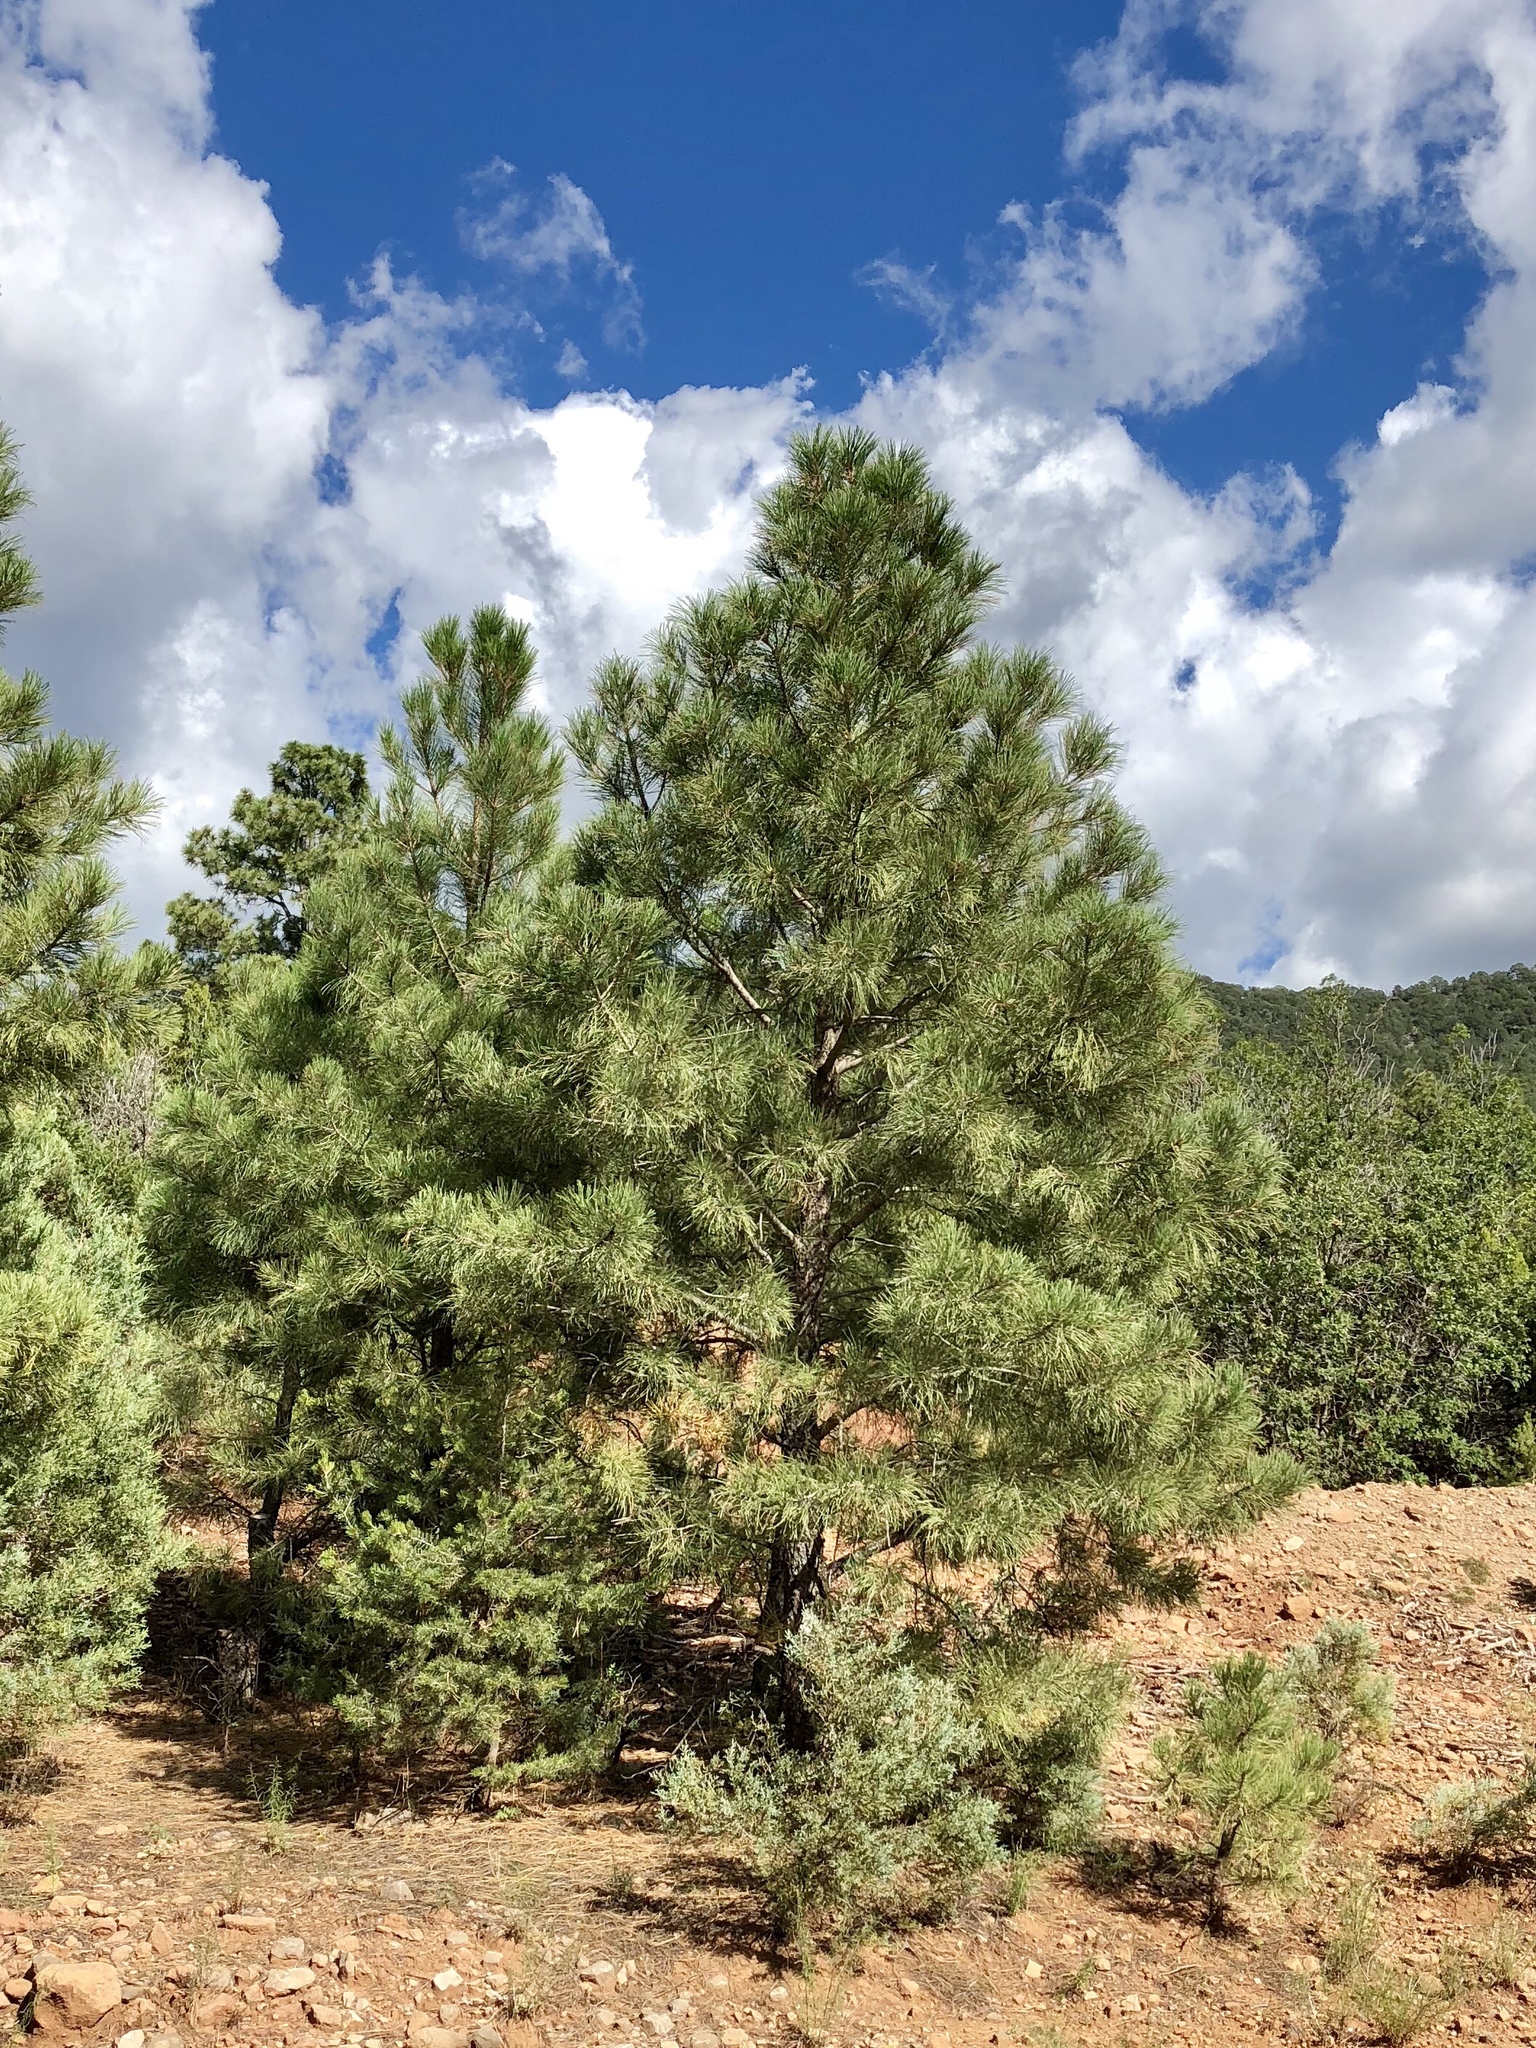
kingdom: Plantae
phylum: Tracheophyta
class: Pinopsida
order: Pinales
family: Pinaceae
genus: Pinus
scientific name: Pinus ponderosa
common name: Western yellow-pine
